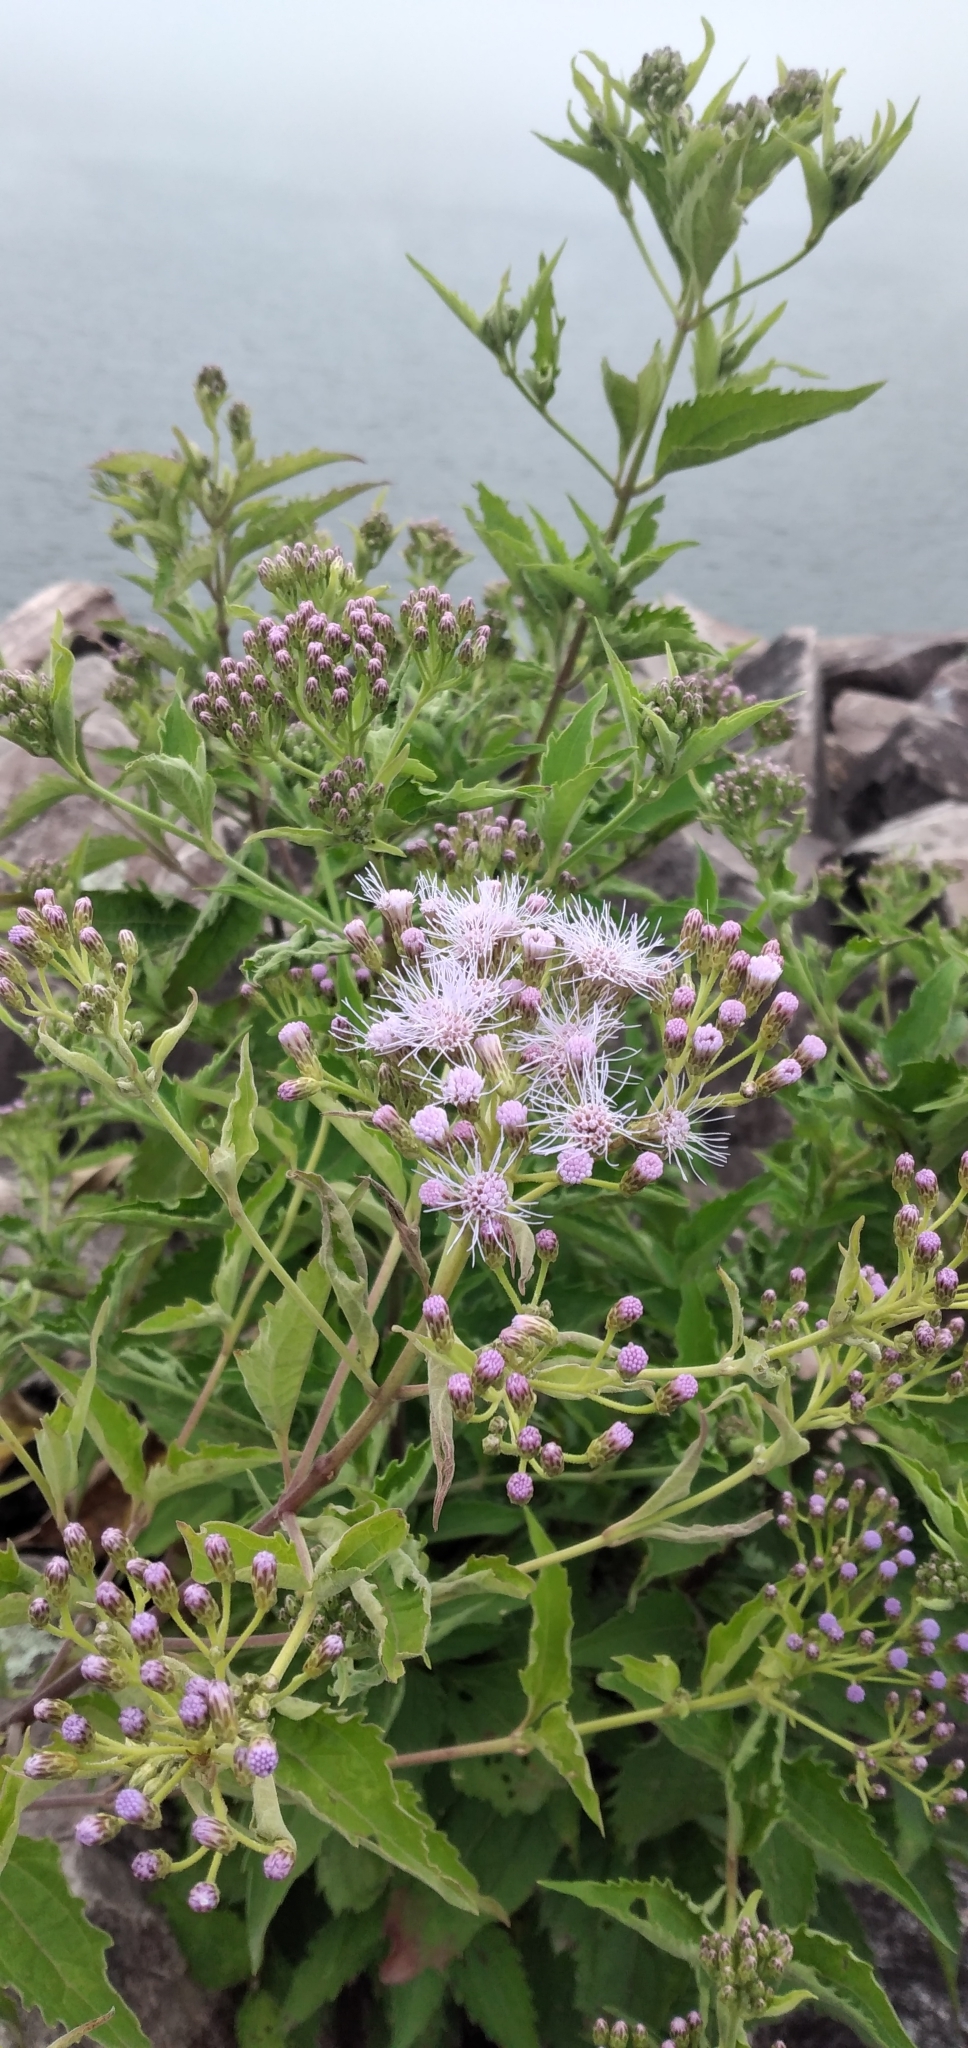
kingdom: Plantae
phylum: Tracheophyta
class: Magnoliopsida
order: Asterales
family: Asteraceae
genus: Chromolaena
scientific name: Chromolaena hookeriana
